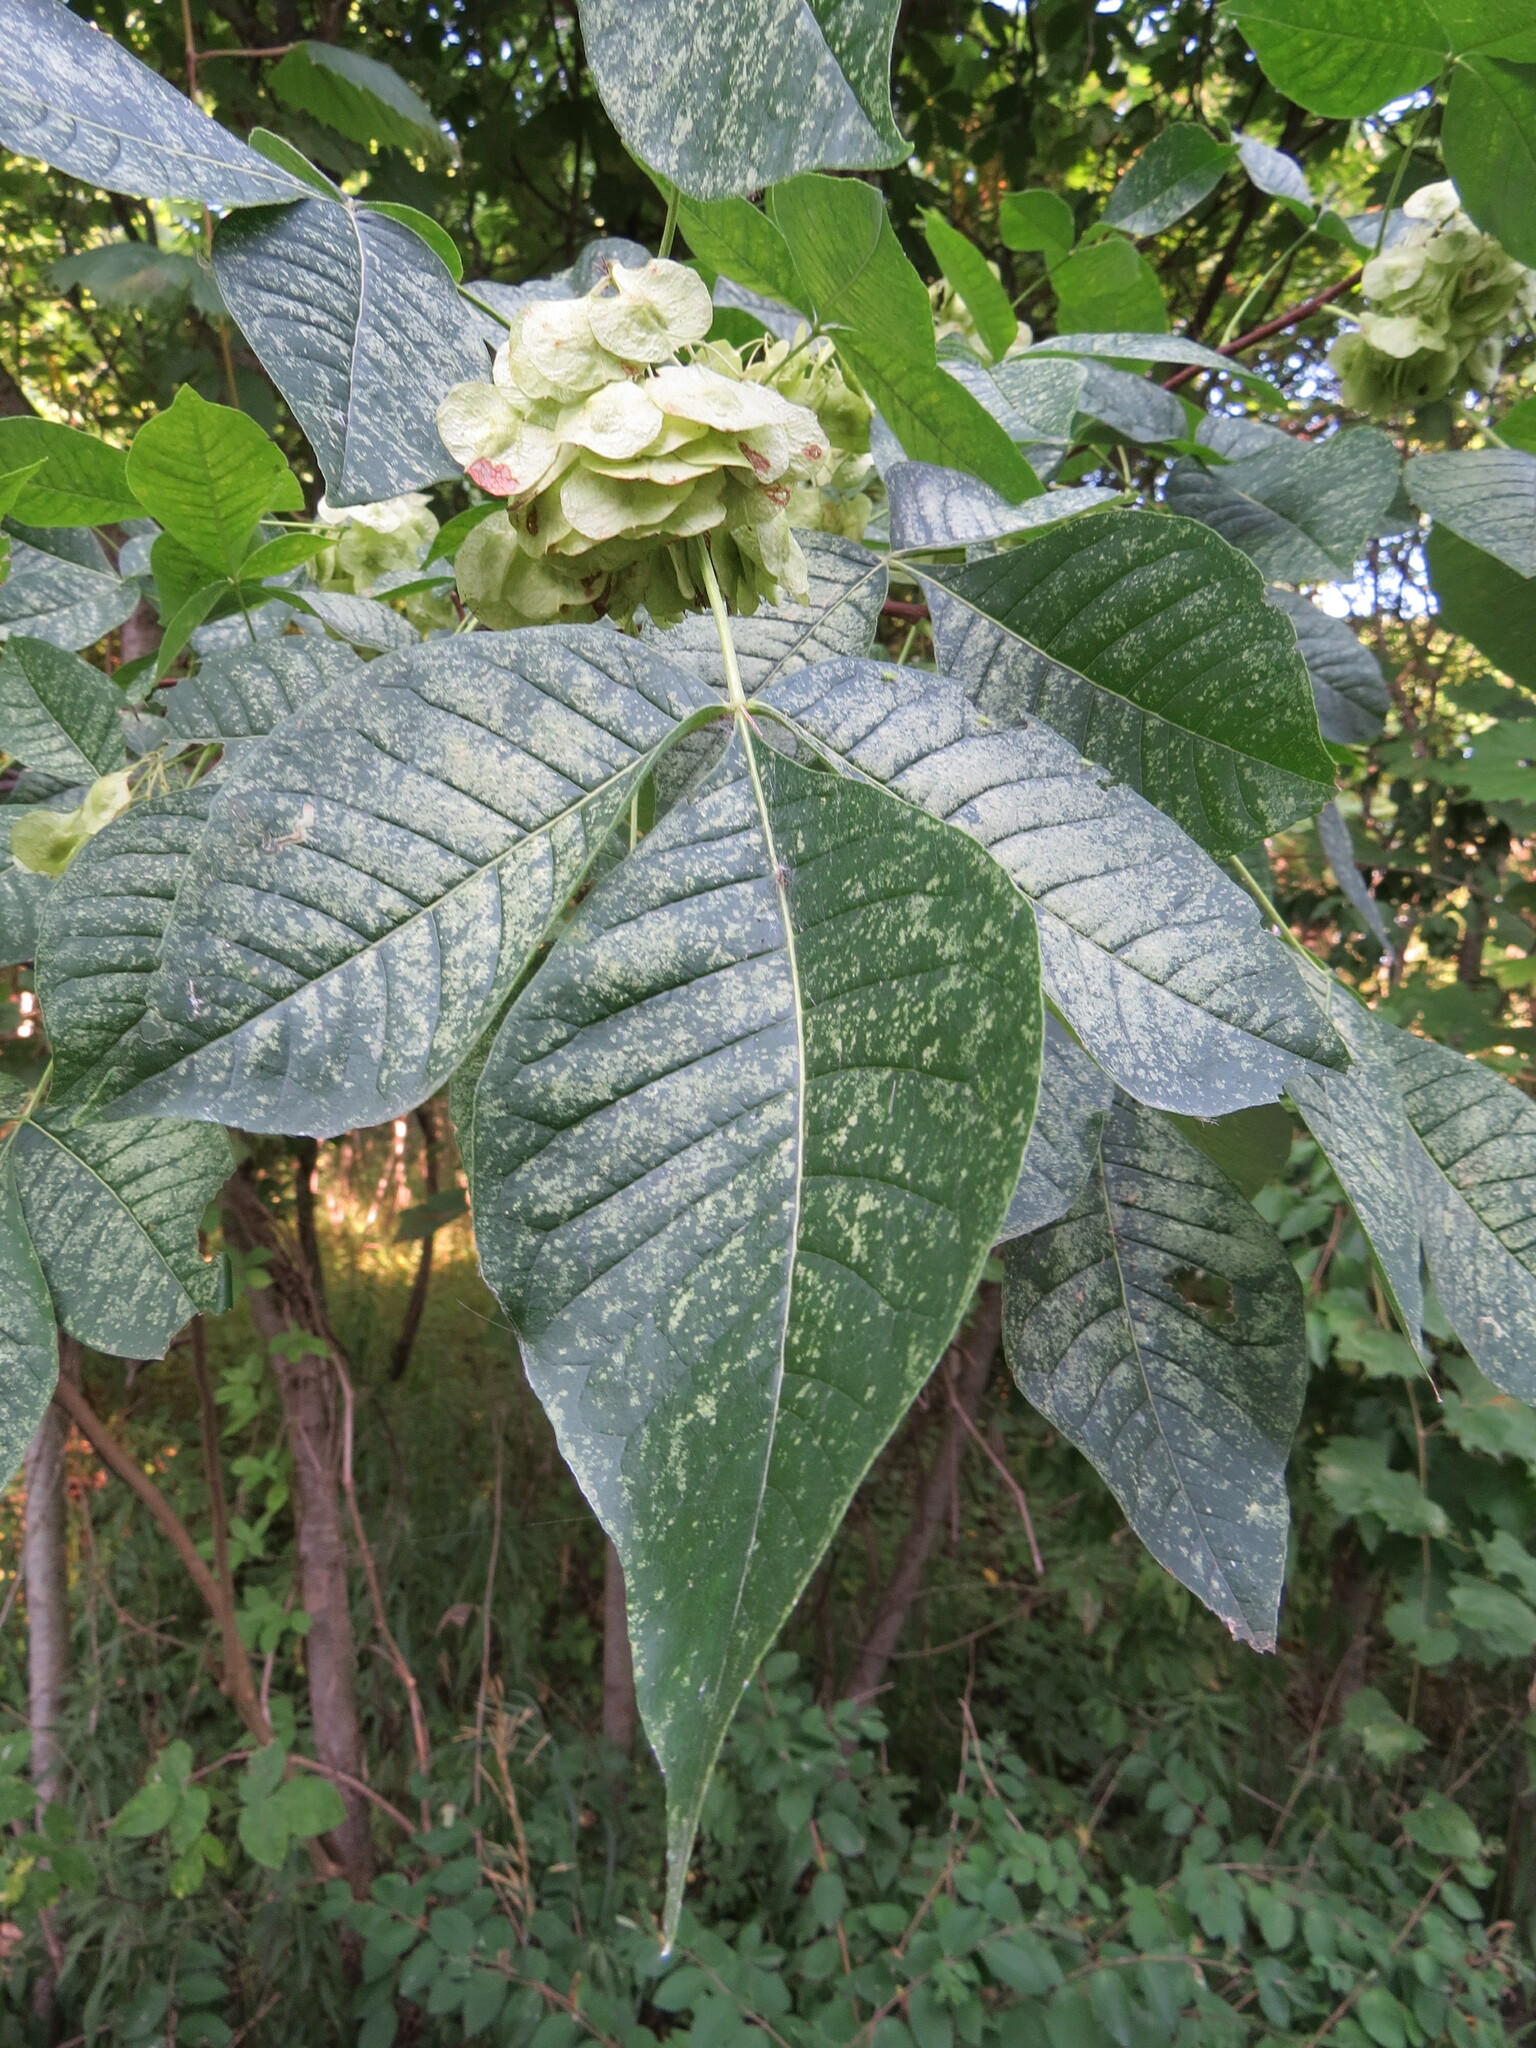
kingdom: Plantae
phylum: Tracheophyta
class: Magnoliopsida
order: Sapindales
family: Rutaceae
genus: Ptelea
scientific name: Ptelea trifoliata
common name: Common hop-tree
